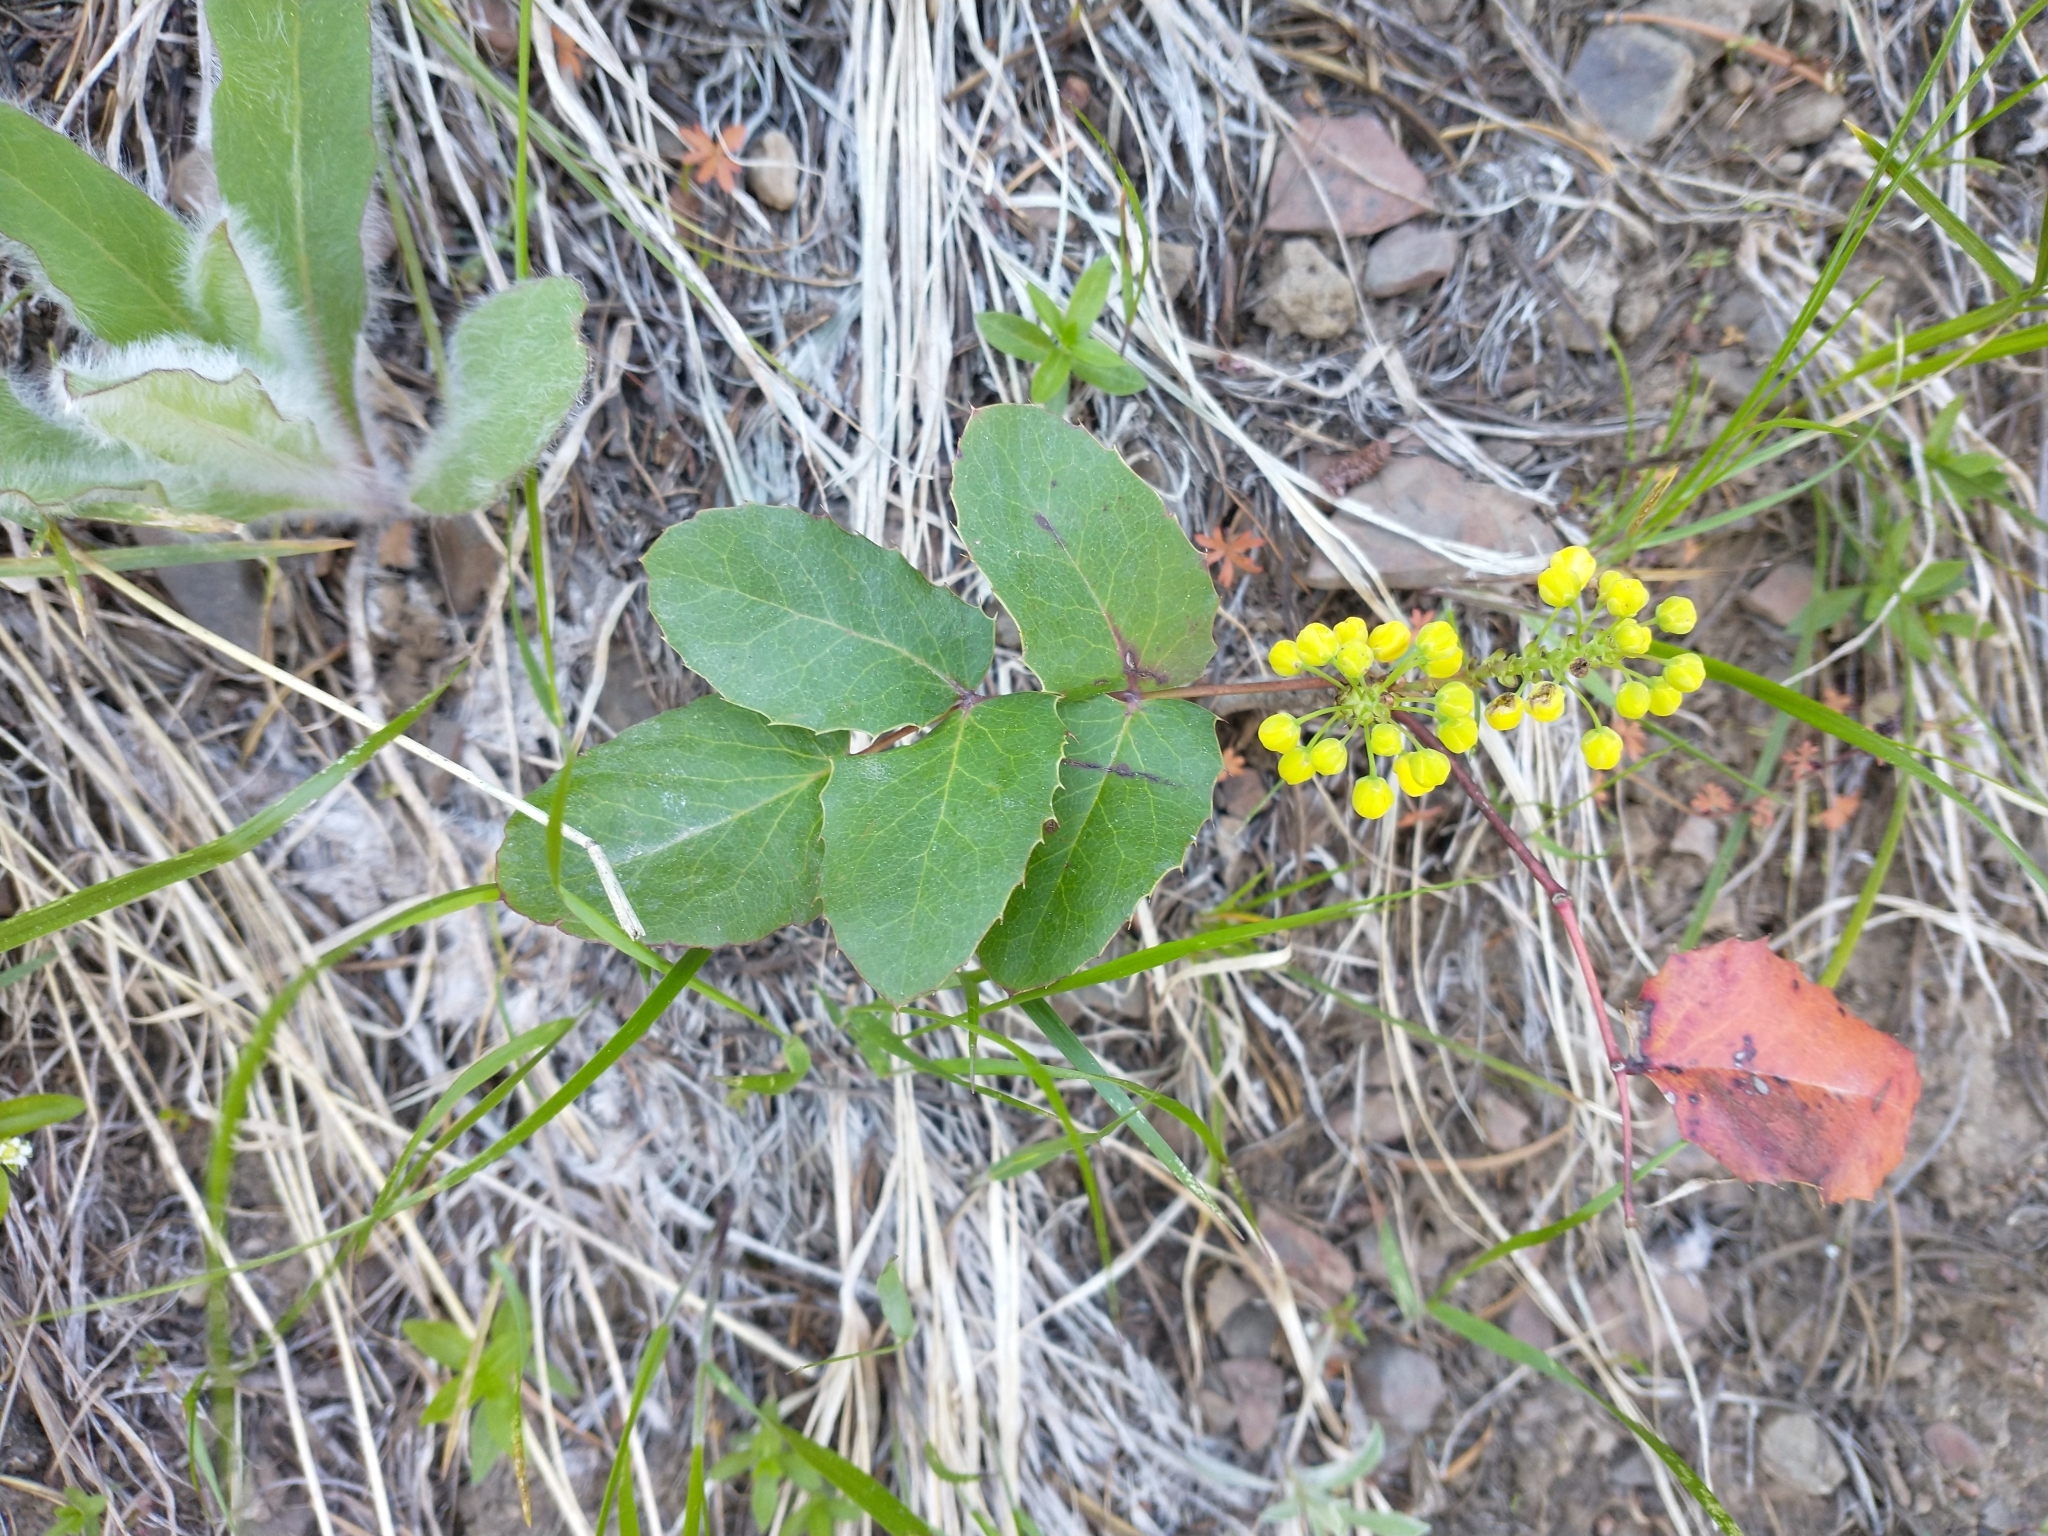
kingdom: Plantae
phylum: Tracheophyta
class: Magnoliopsida
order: Ranunculales
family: Berberidaceae
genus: Mahonia
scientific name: Mahonia repens
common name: Creeping oregon-grape
